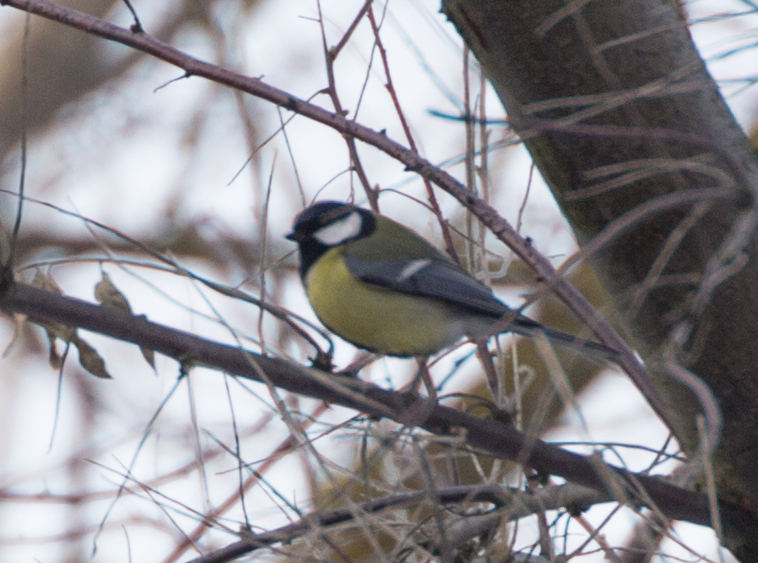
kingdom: Animalia
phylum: Chordata
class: Aves
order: Passeriformes
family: Paridae
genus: Parus
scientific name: Parus major
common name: Great tit
